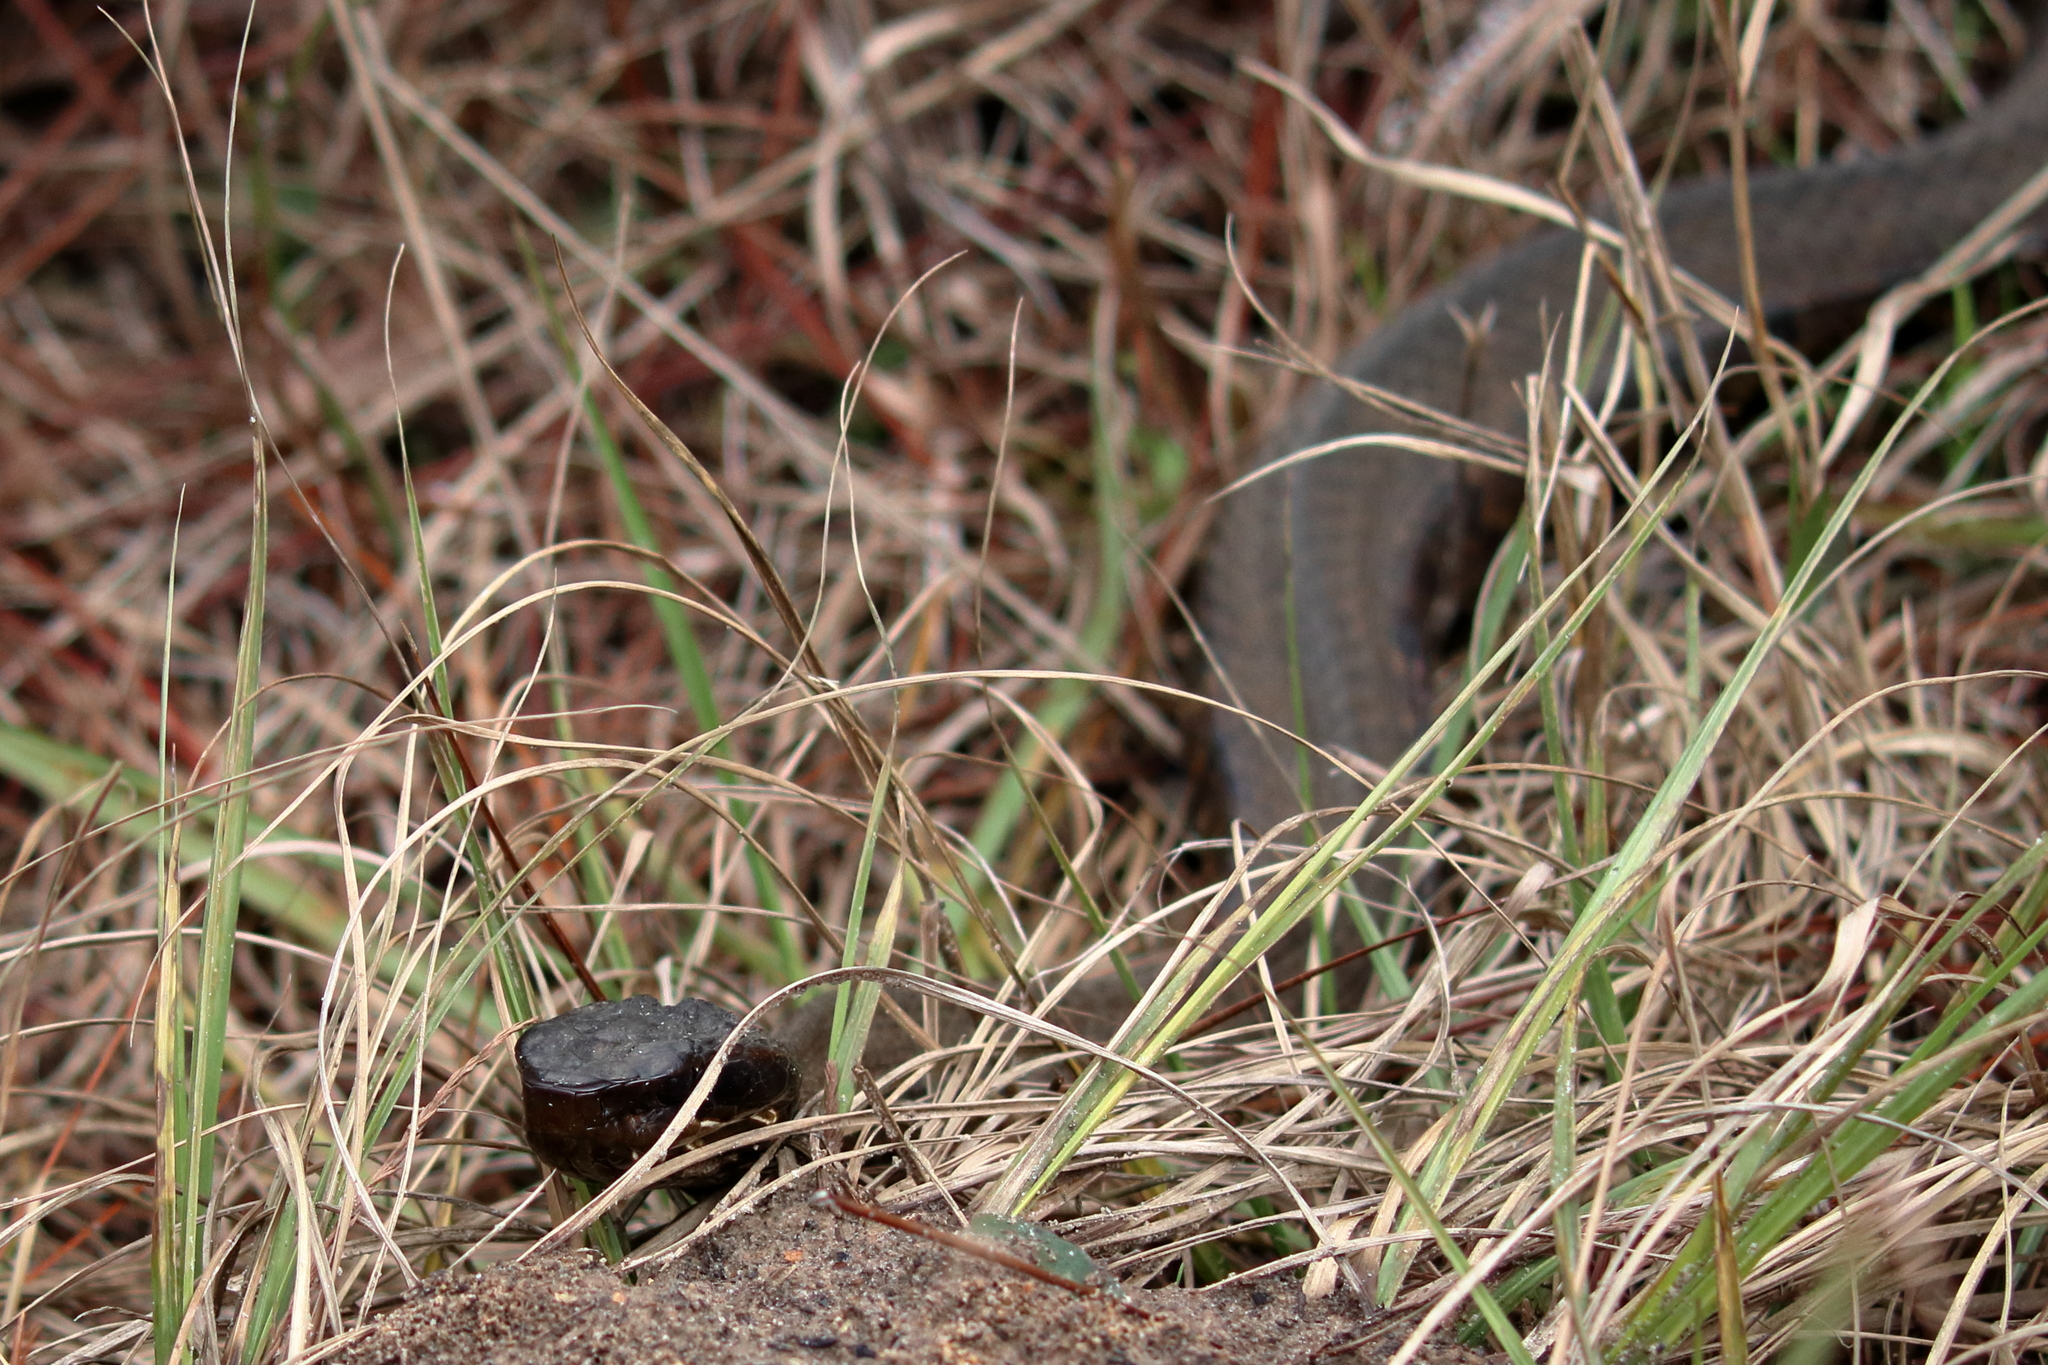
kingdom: Animalia
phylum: Chordata
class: Squamata
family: Viperidae
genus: Agkistrodon
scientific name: Agkistrodon piscivorus
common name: Cottonmouth
